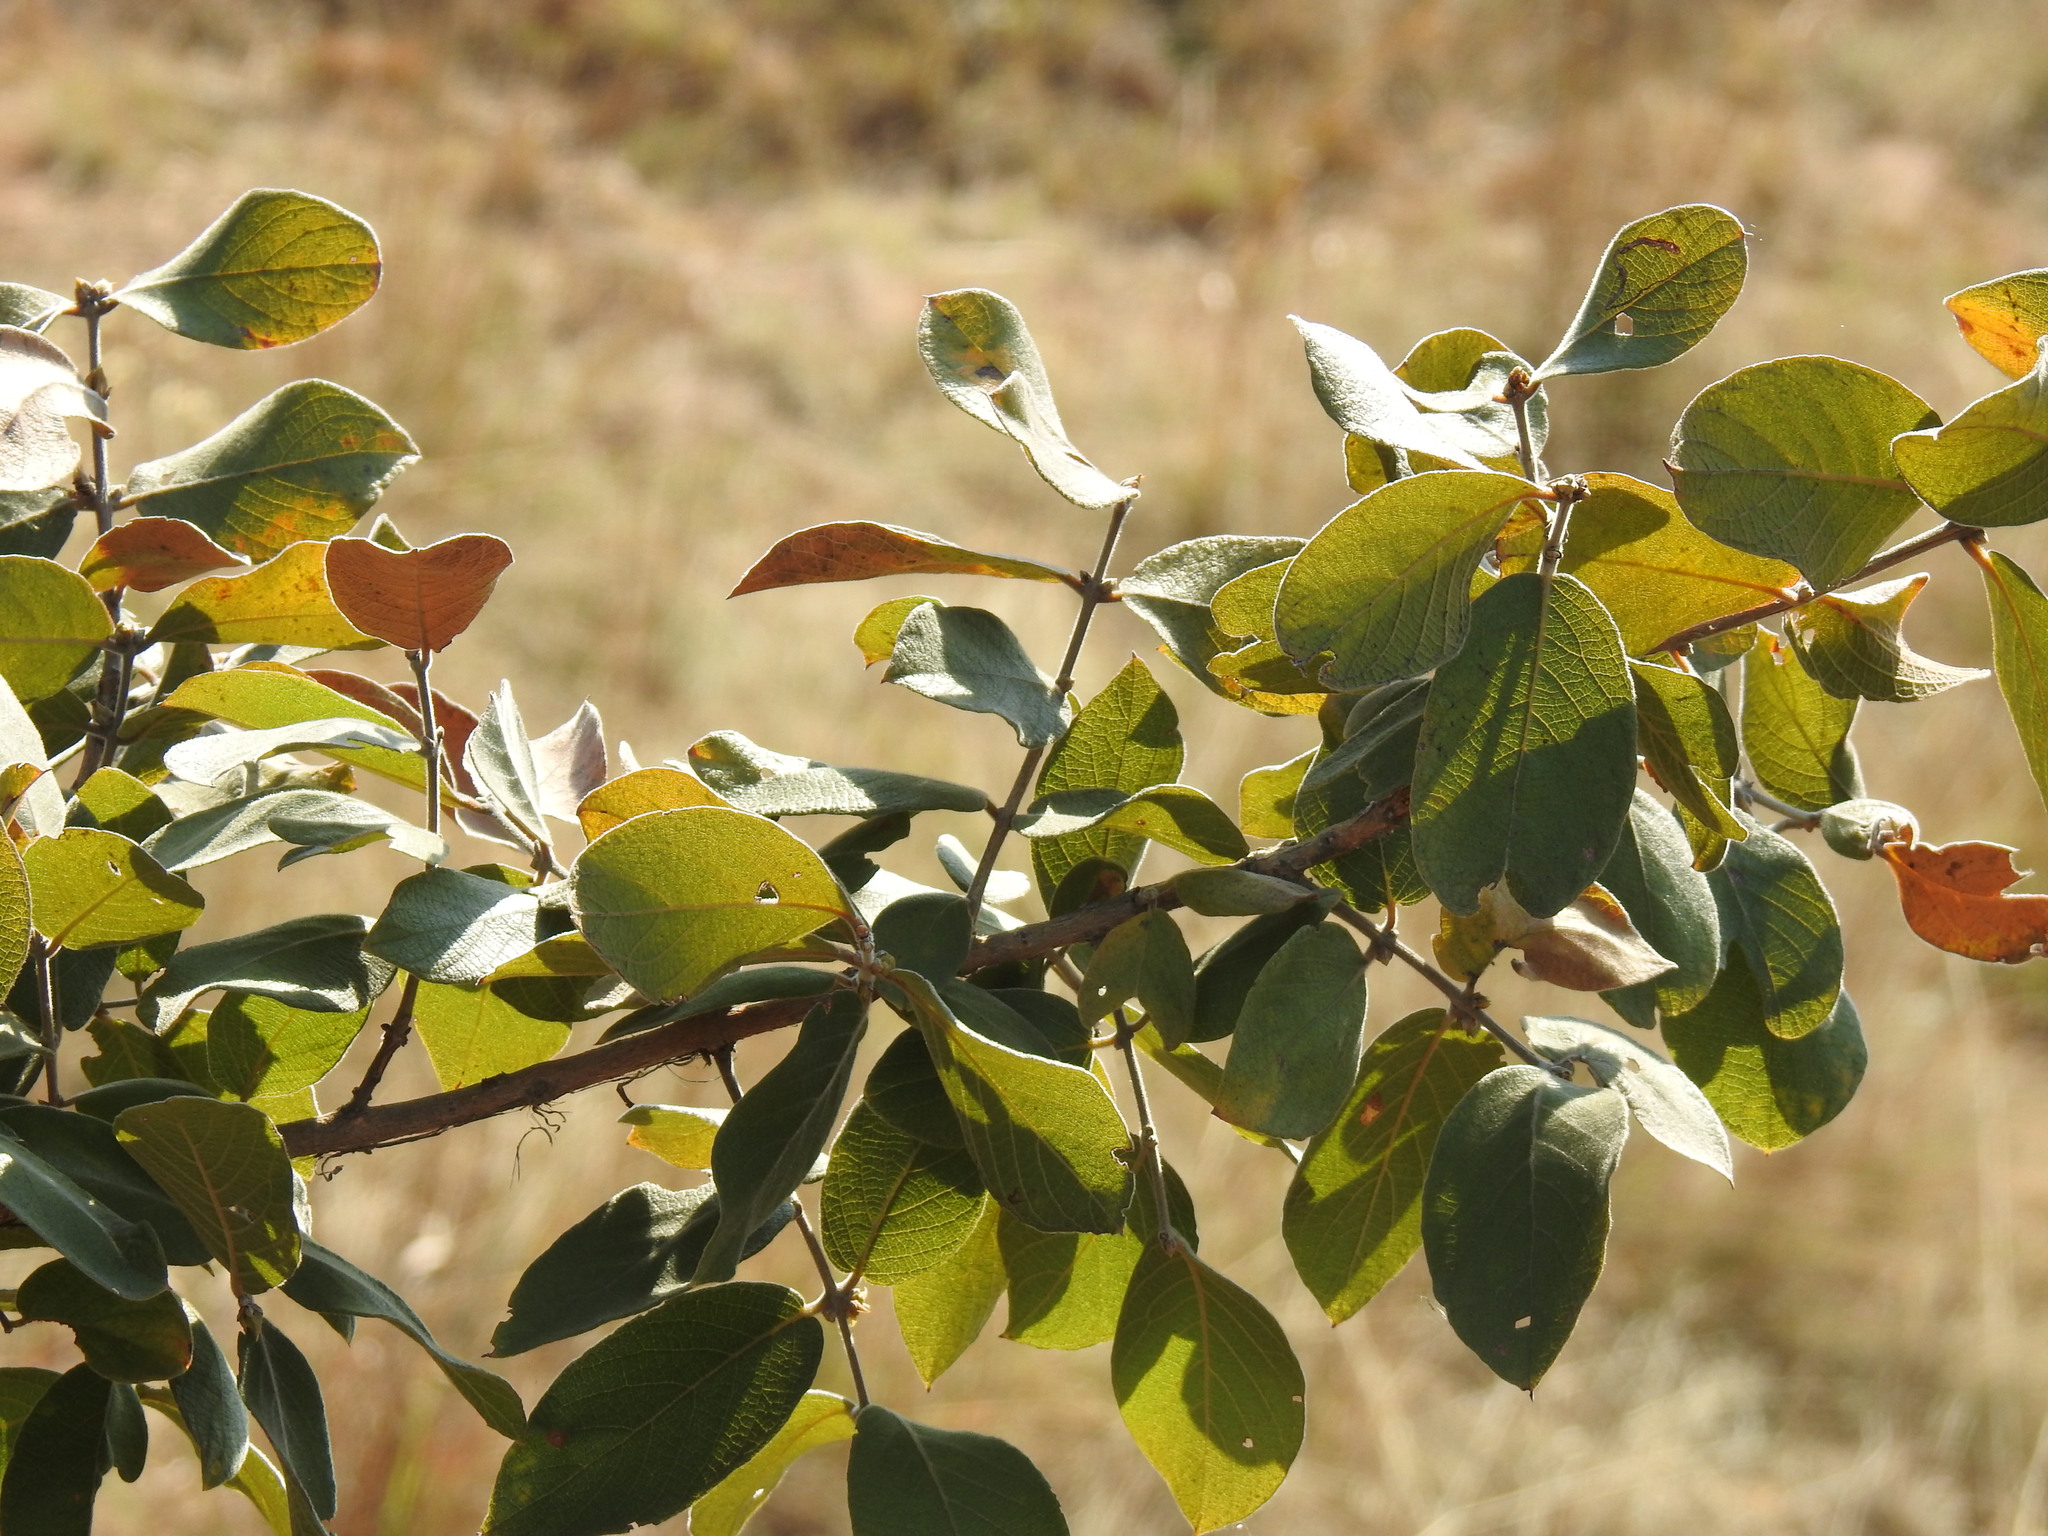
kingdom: Plantae
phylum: Tracheophyta
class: Magnoliopsida
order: Myrtales
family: Combretaceae
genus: Combretum
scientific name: Combretum molle
